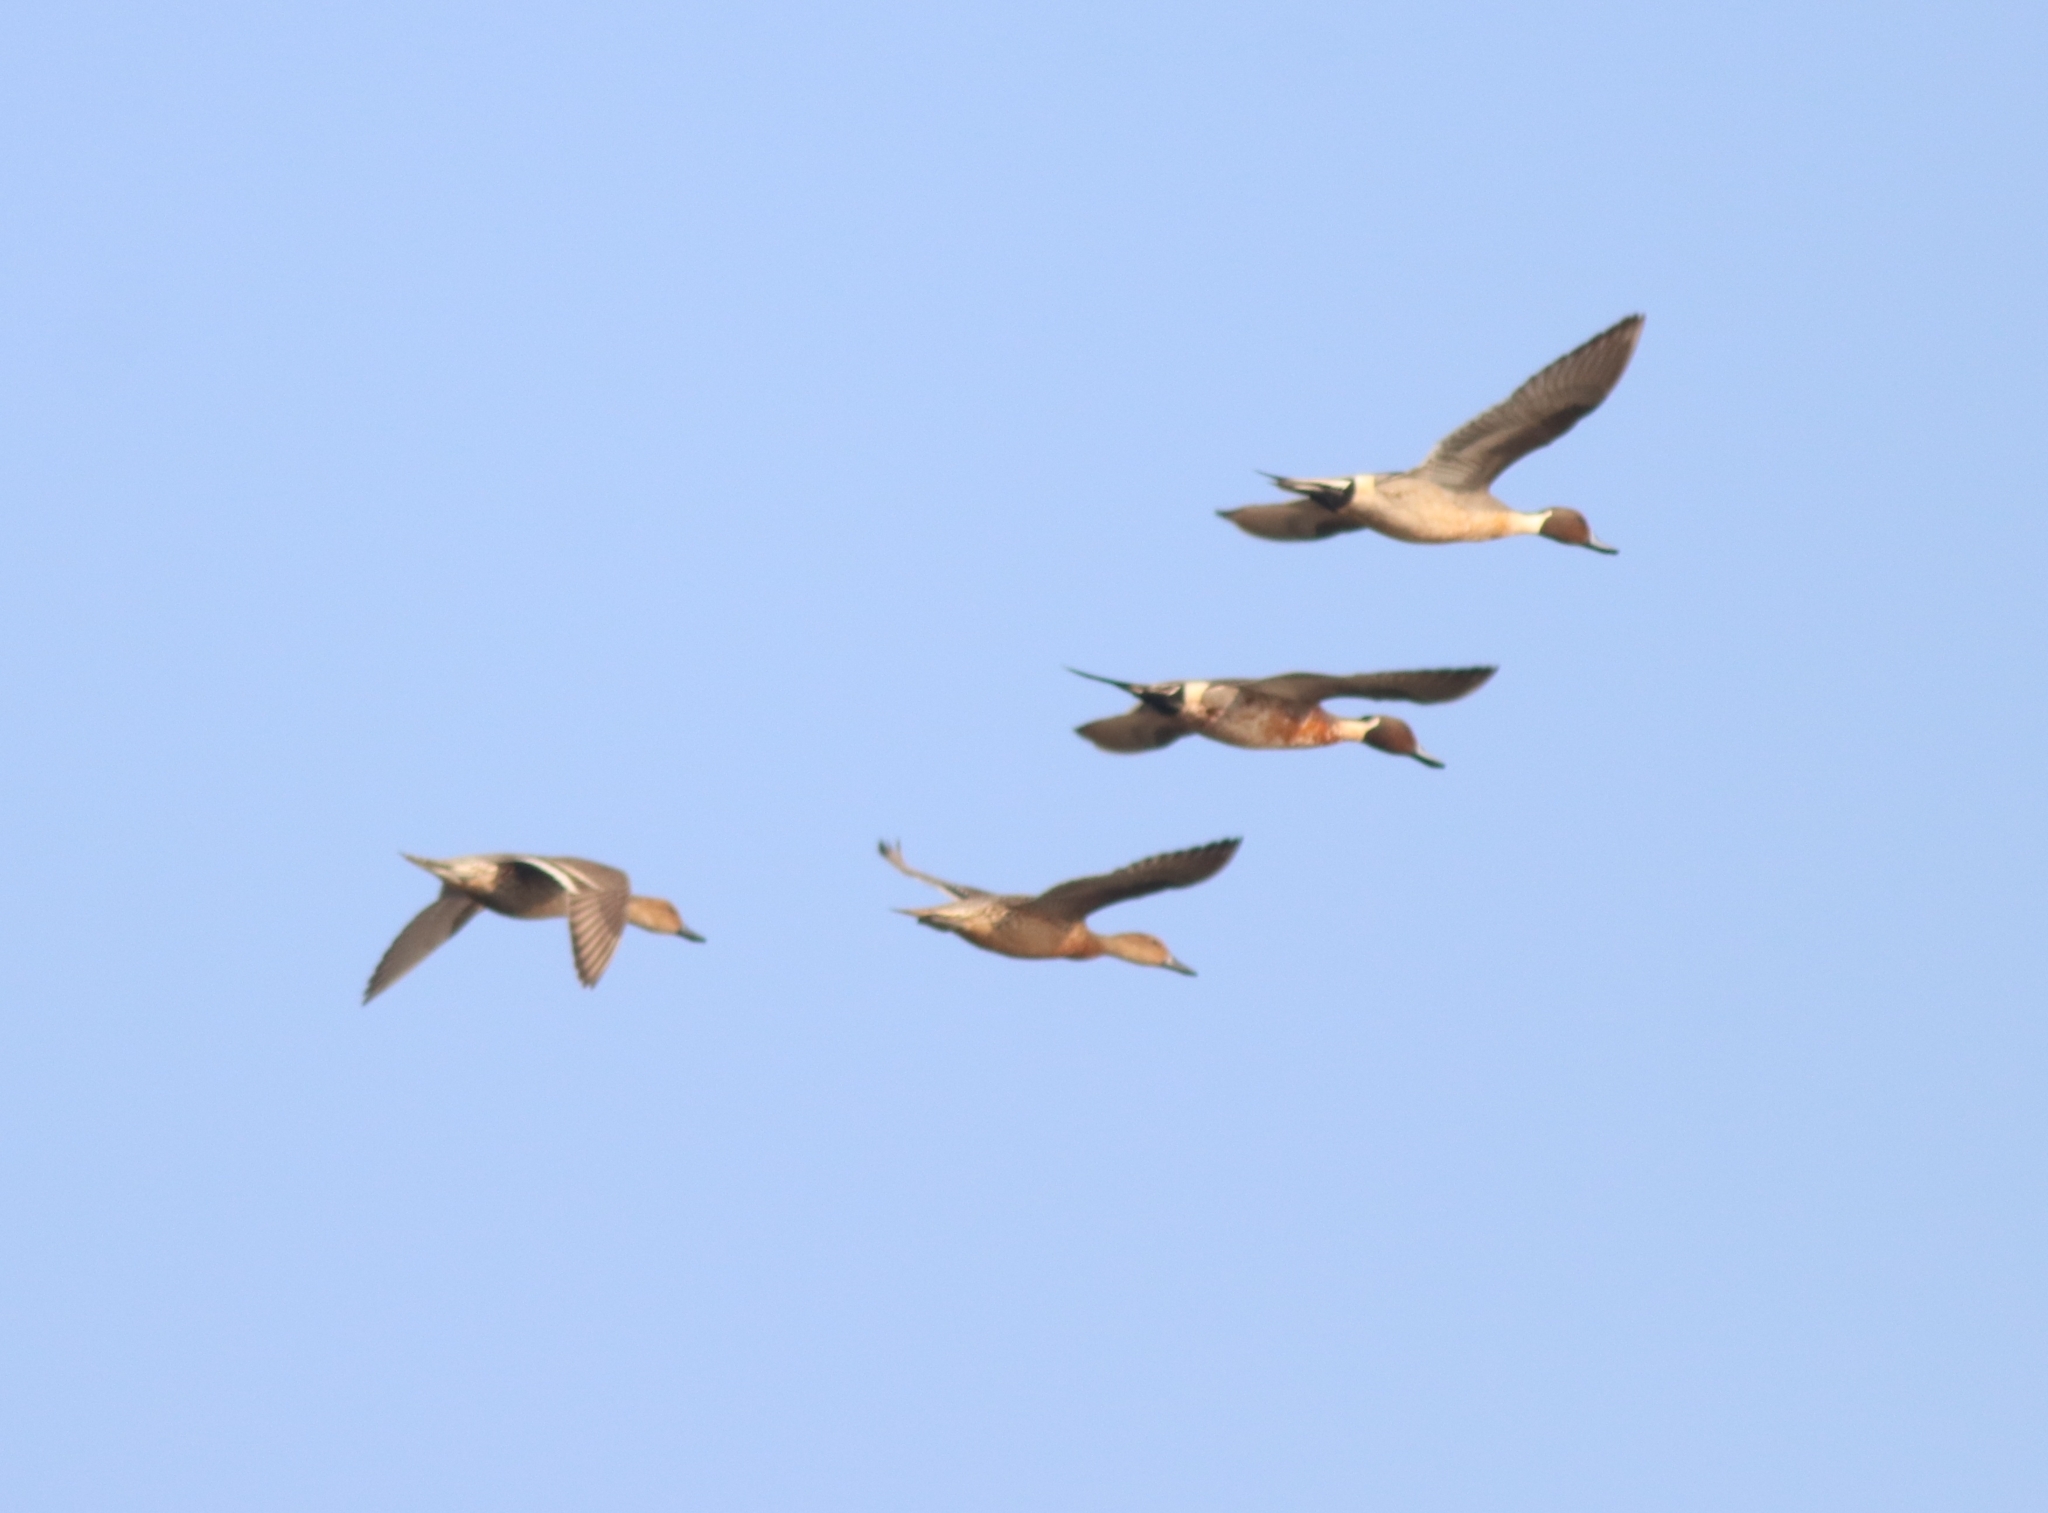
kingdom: Animalia
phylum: Chordata
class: Aves
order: Anseriformes
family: Anatidae
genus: Anas
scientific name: Anas acuta
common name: Northern pintail
